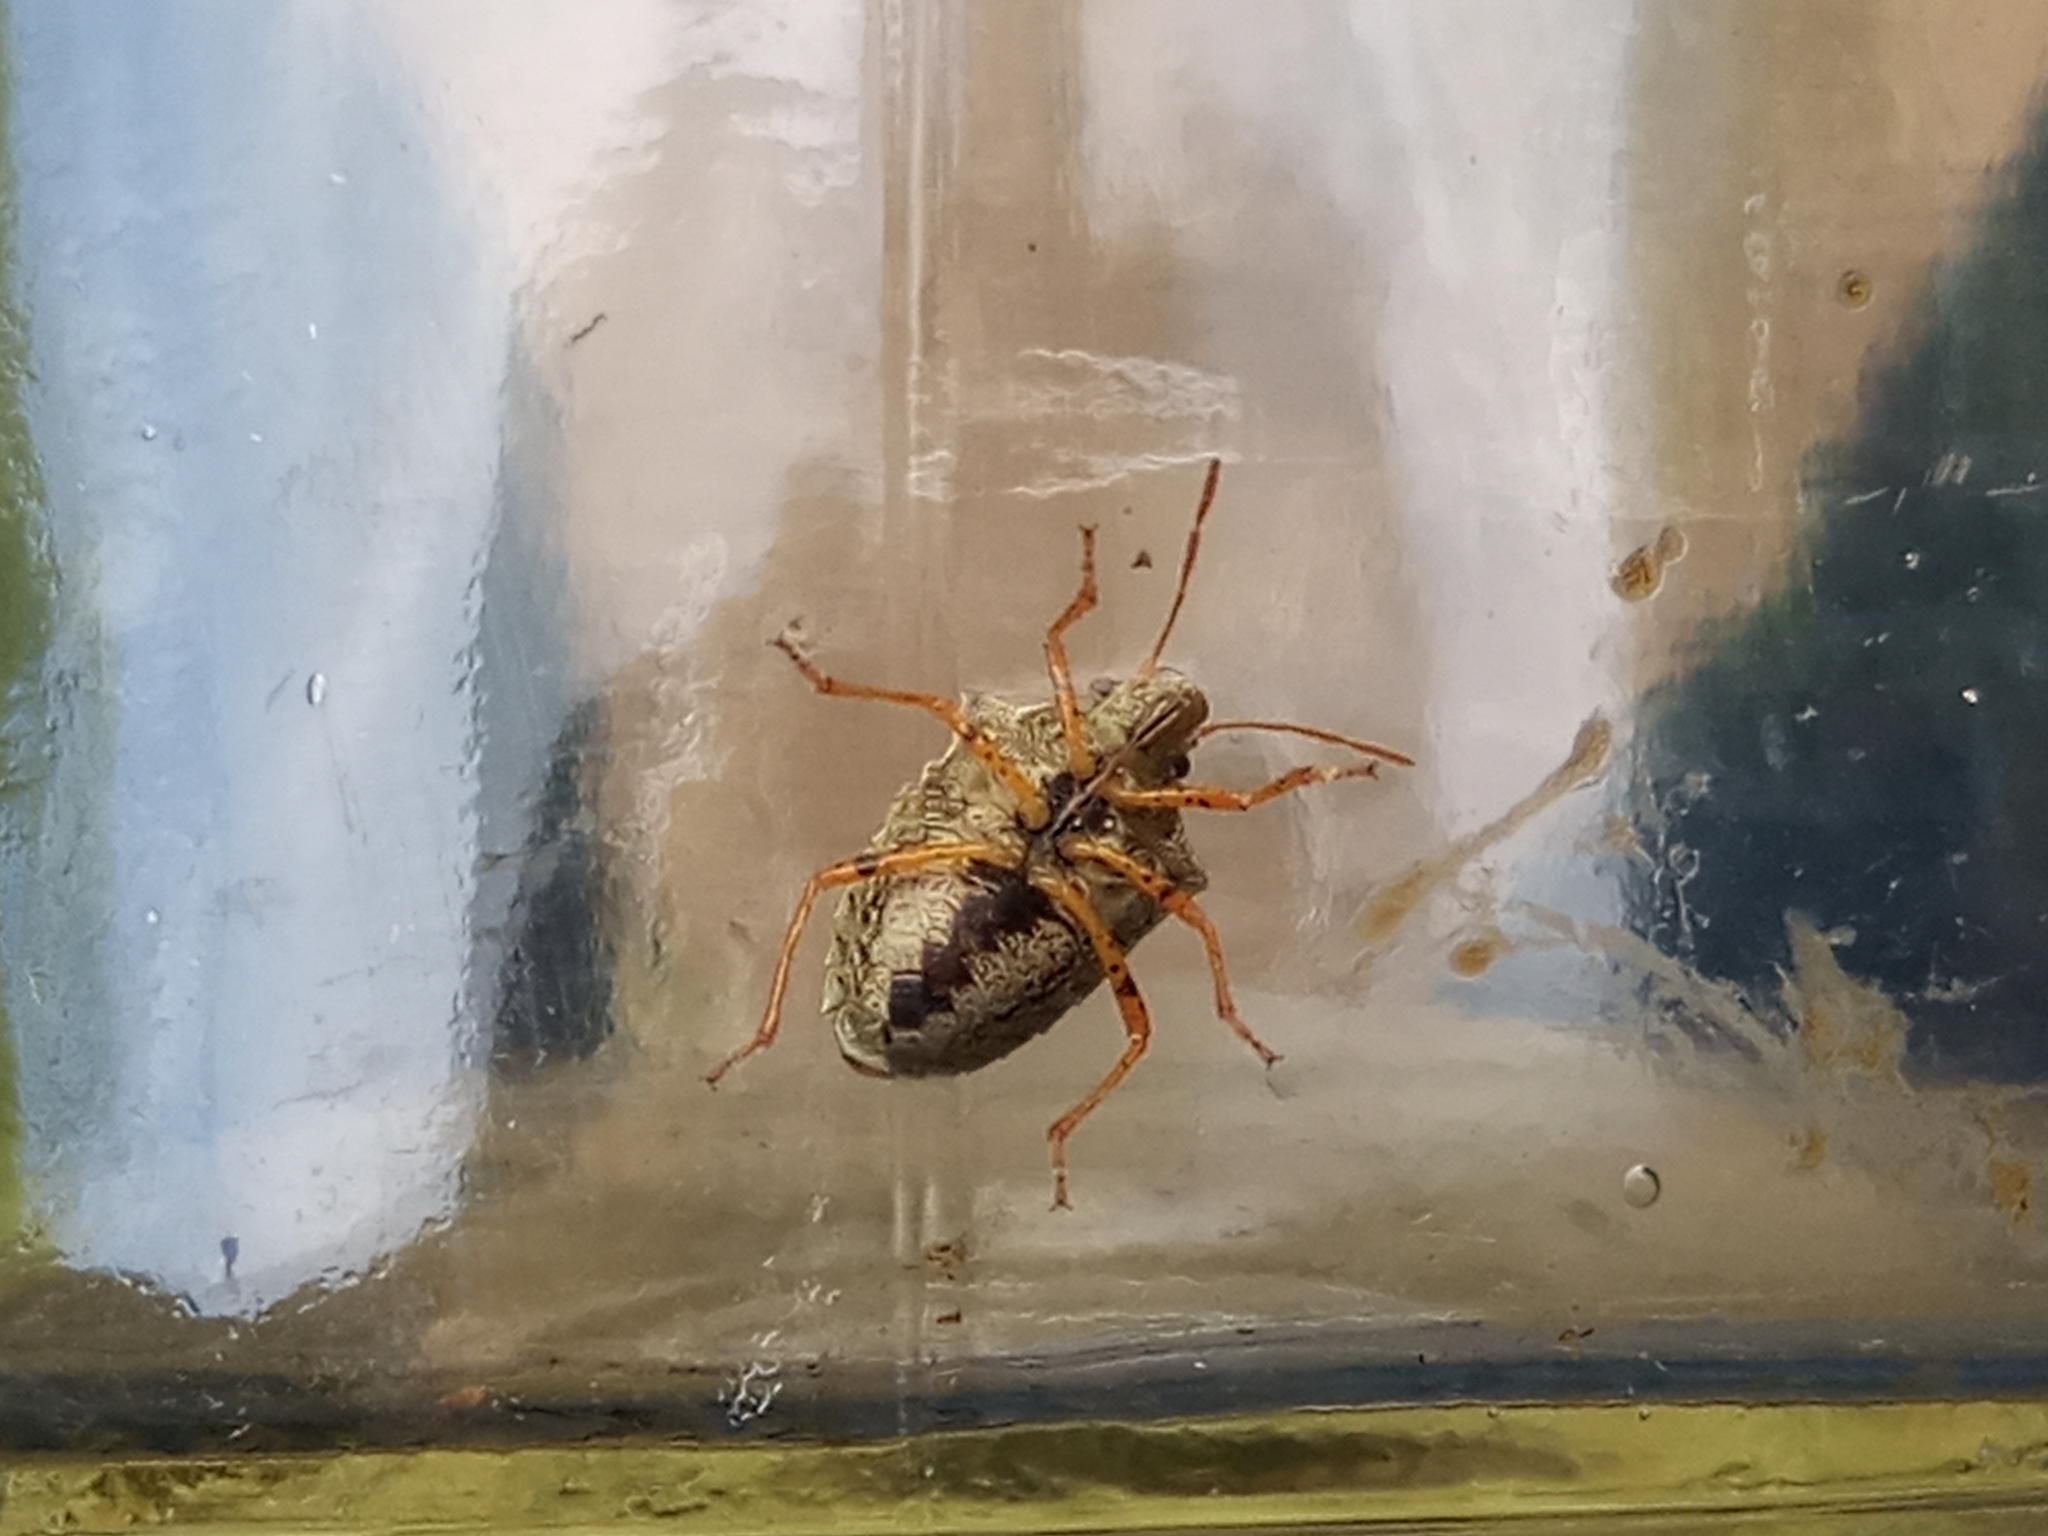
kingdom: Animalia
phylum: Arthropoda
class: Insecta
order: Hemiptera
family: Pentatomidae
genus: Mormidea
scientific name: Mormidea
